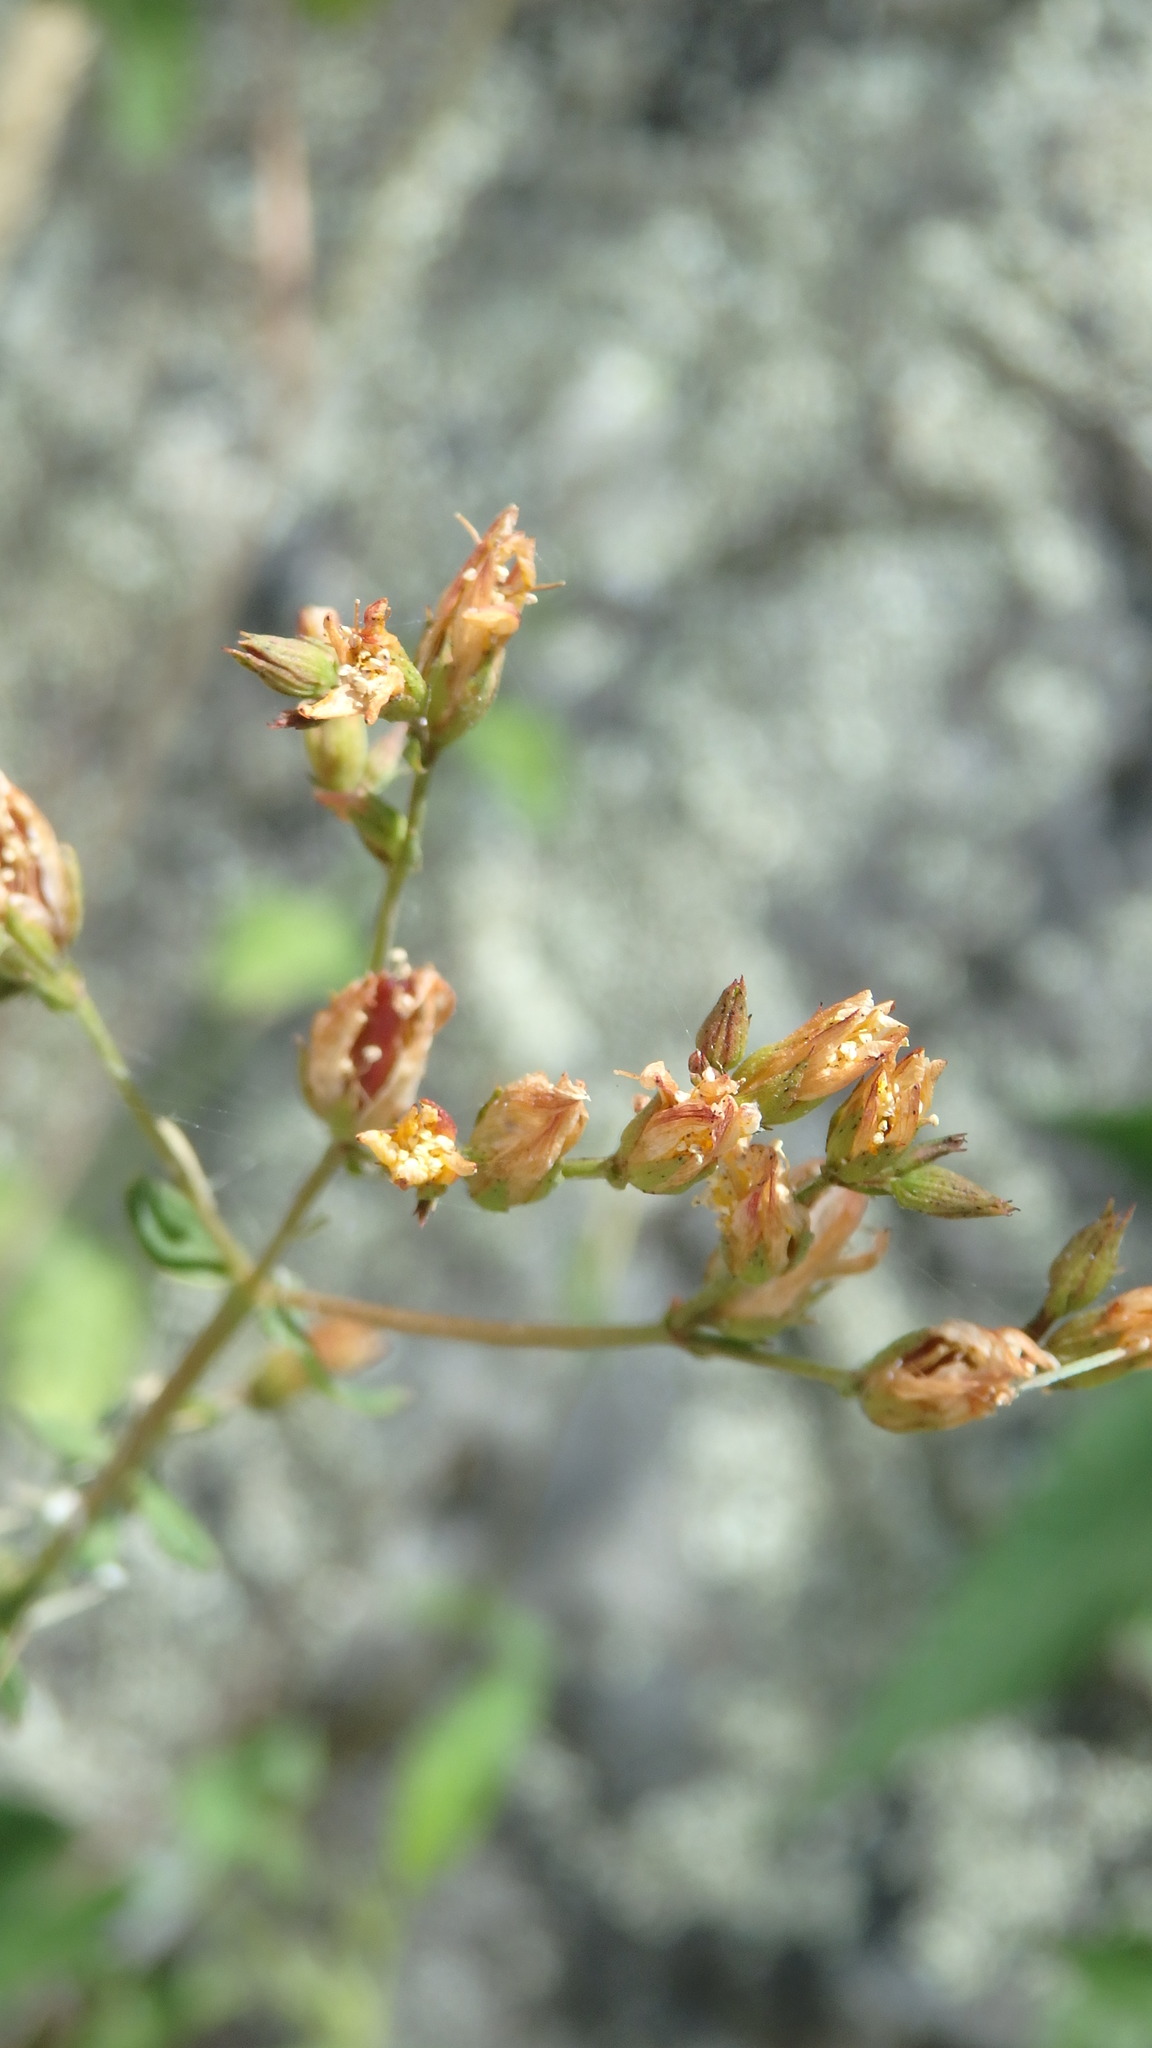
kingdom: Plantae
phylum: Tracheophyta
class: Magnoliopsida
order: Malpighiales
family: Hypericaceae
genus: Hypericum
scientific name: Hypericum undulatum
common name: Wavy st. john's-wort
